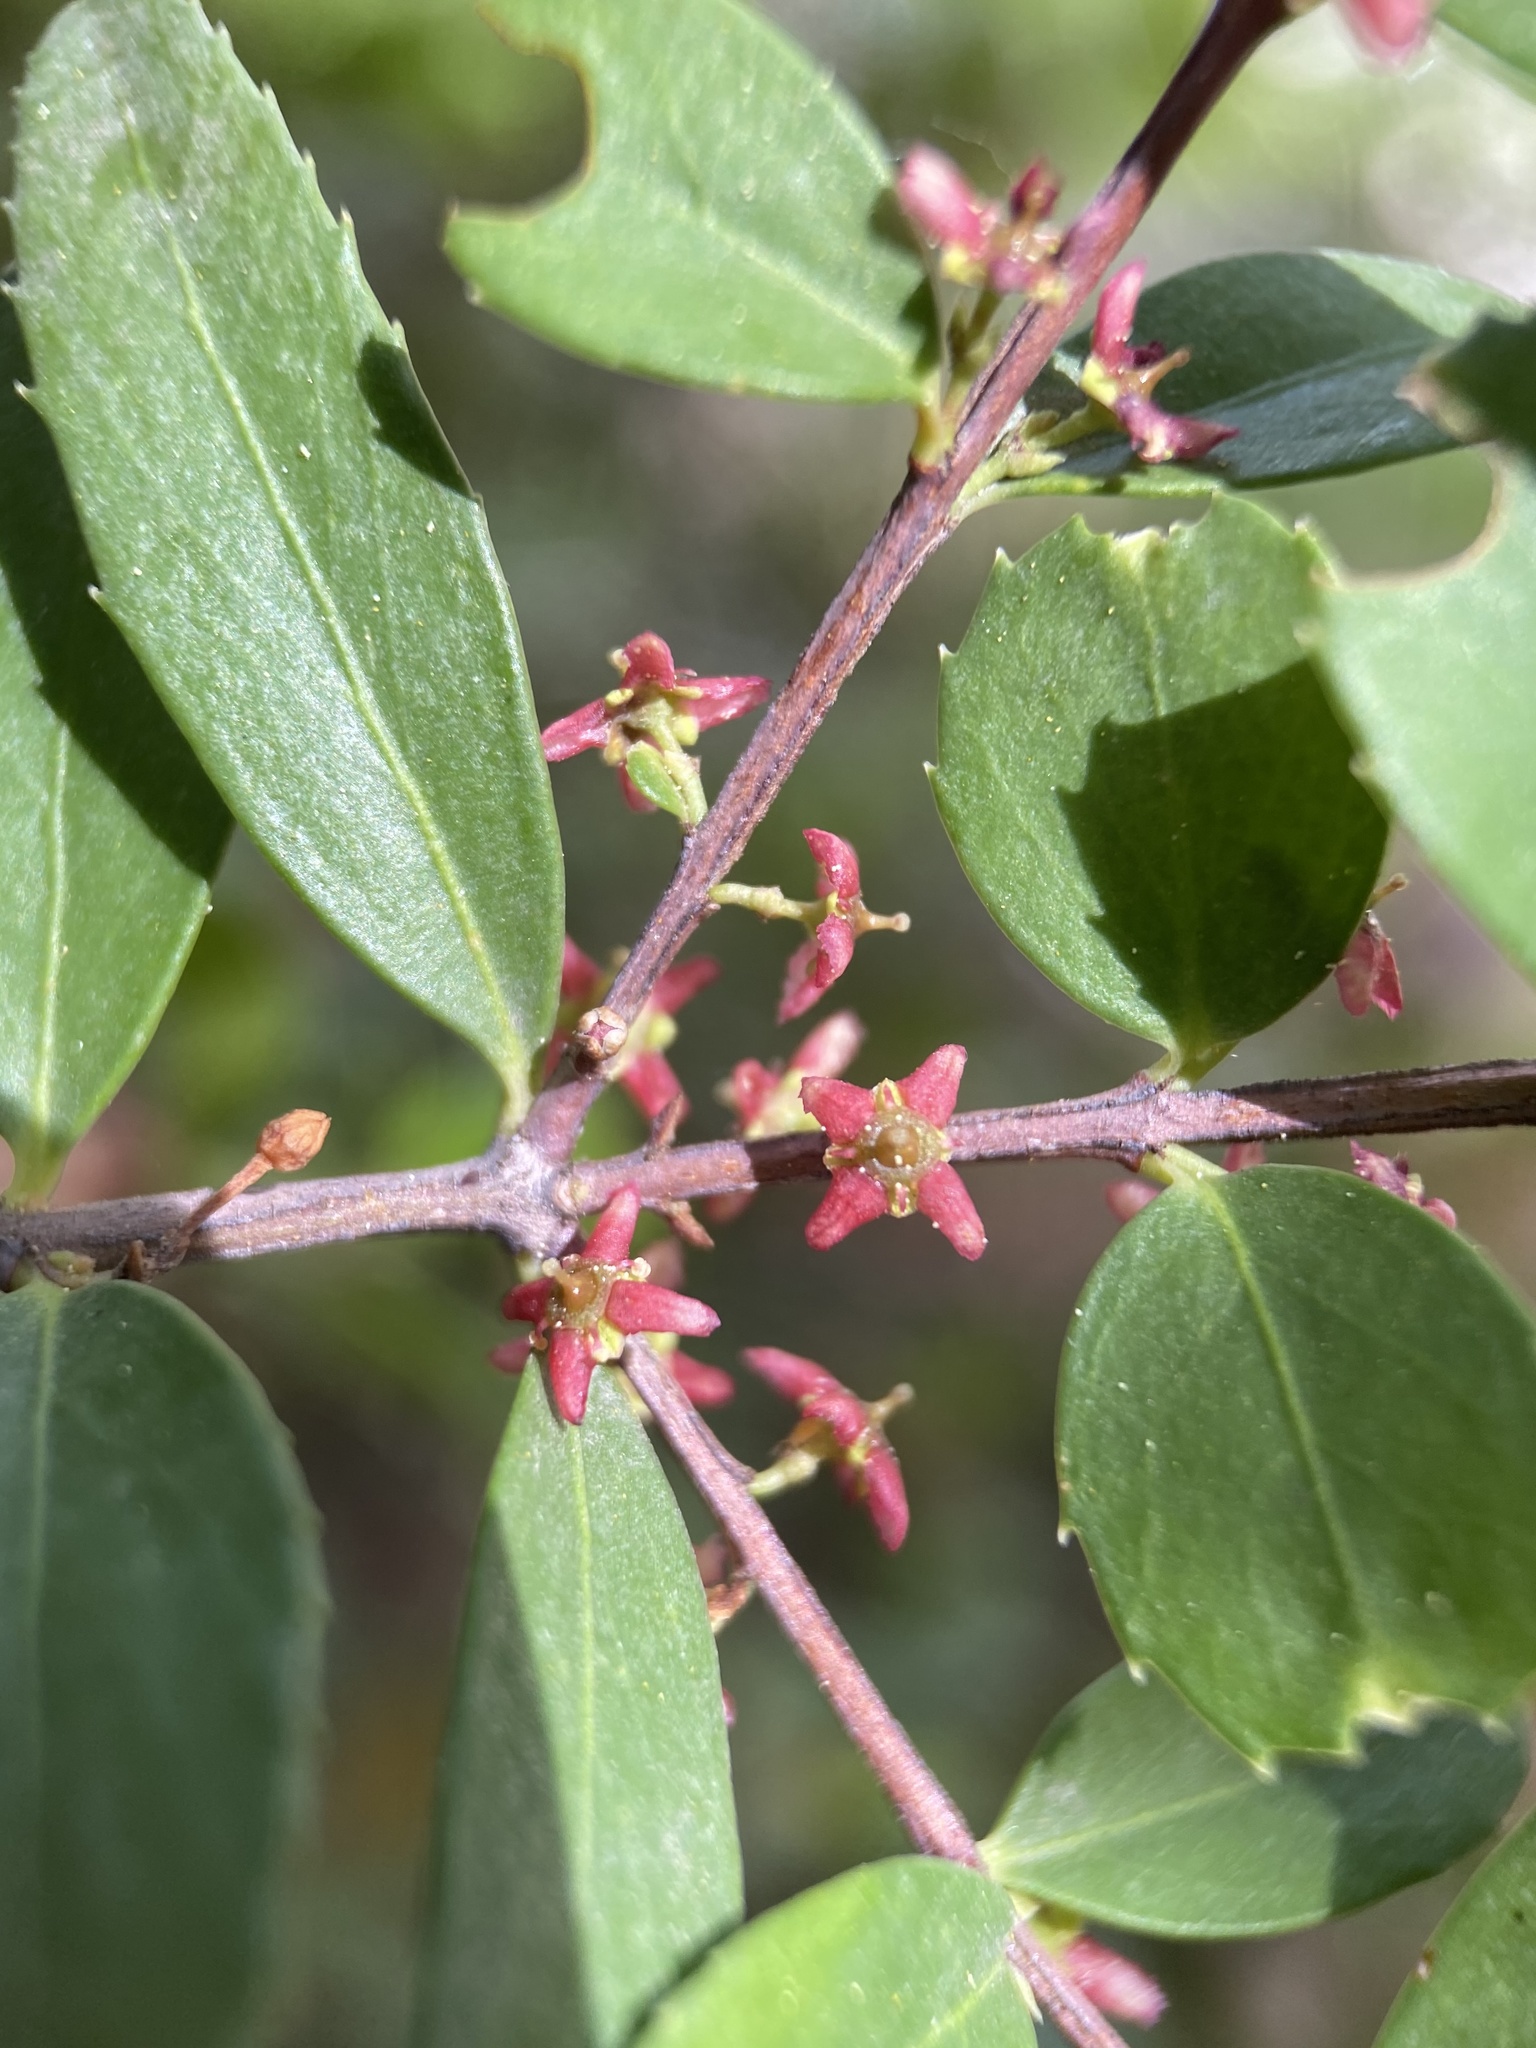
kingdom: Plantae
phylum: Tracheophyta
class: Magnoliopsida
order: Celastrales
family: Celastraceae
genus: Paxistima
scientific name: Paxistima myrsinites
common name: Mountain-lover
